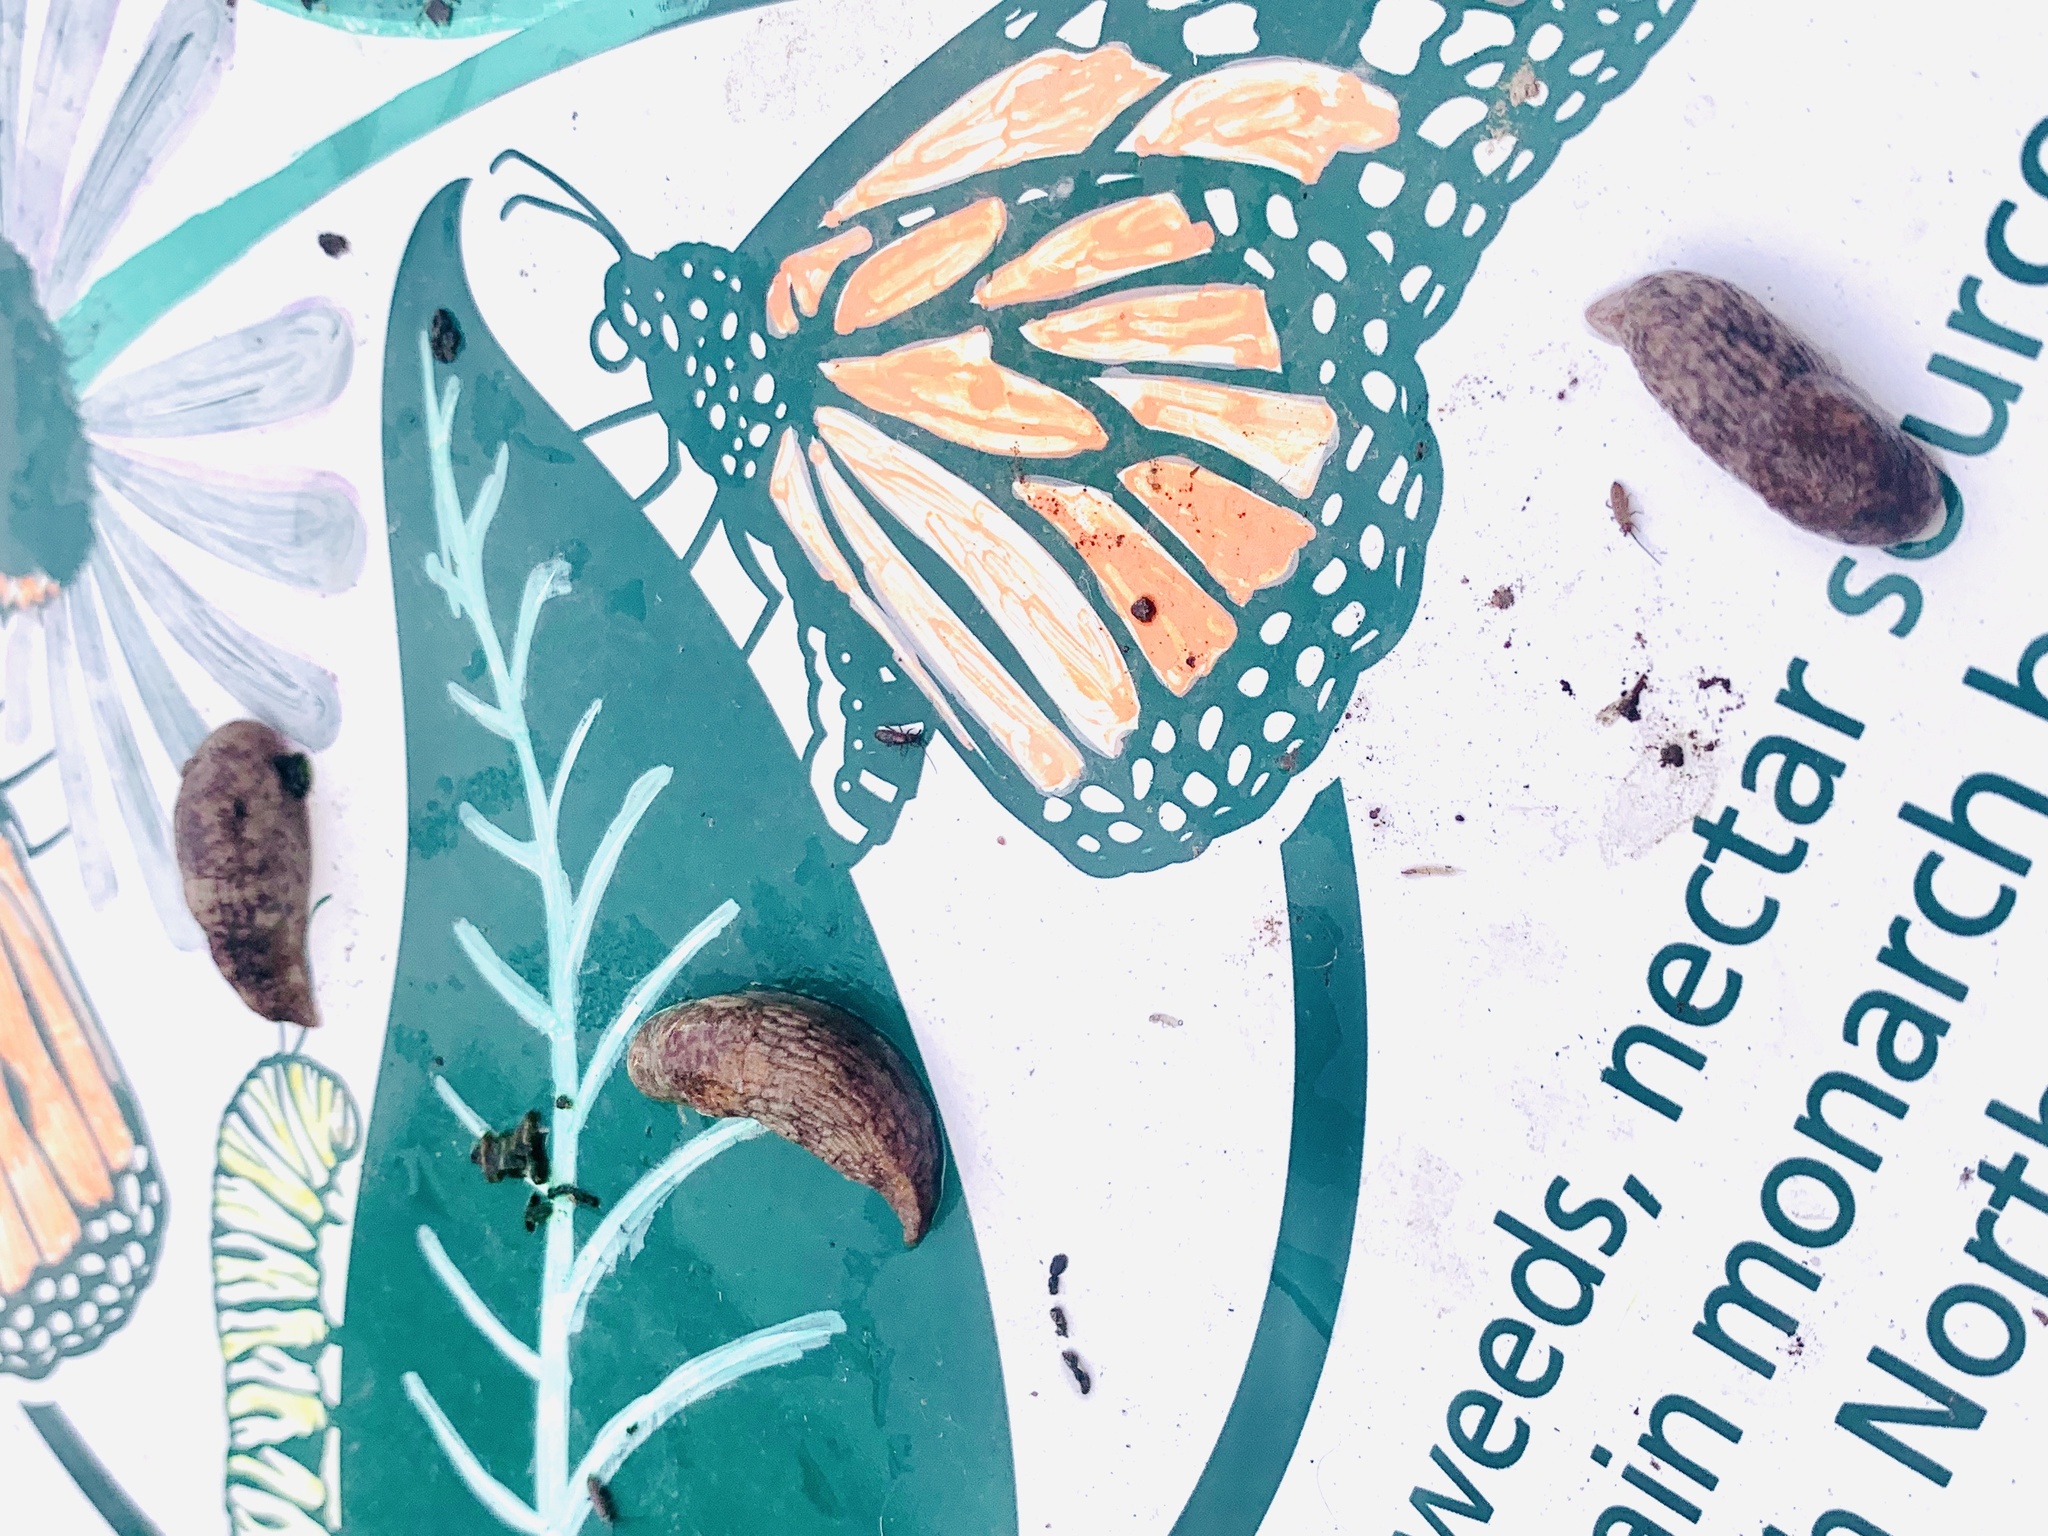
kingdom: Animalia
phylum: Mollusca
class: Gastropoda
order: Stylommatophora
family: Agriolimacidae
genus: Deroceras
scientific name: Deroceras reticulatum
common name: Gray field slug
